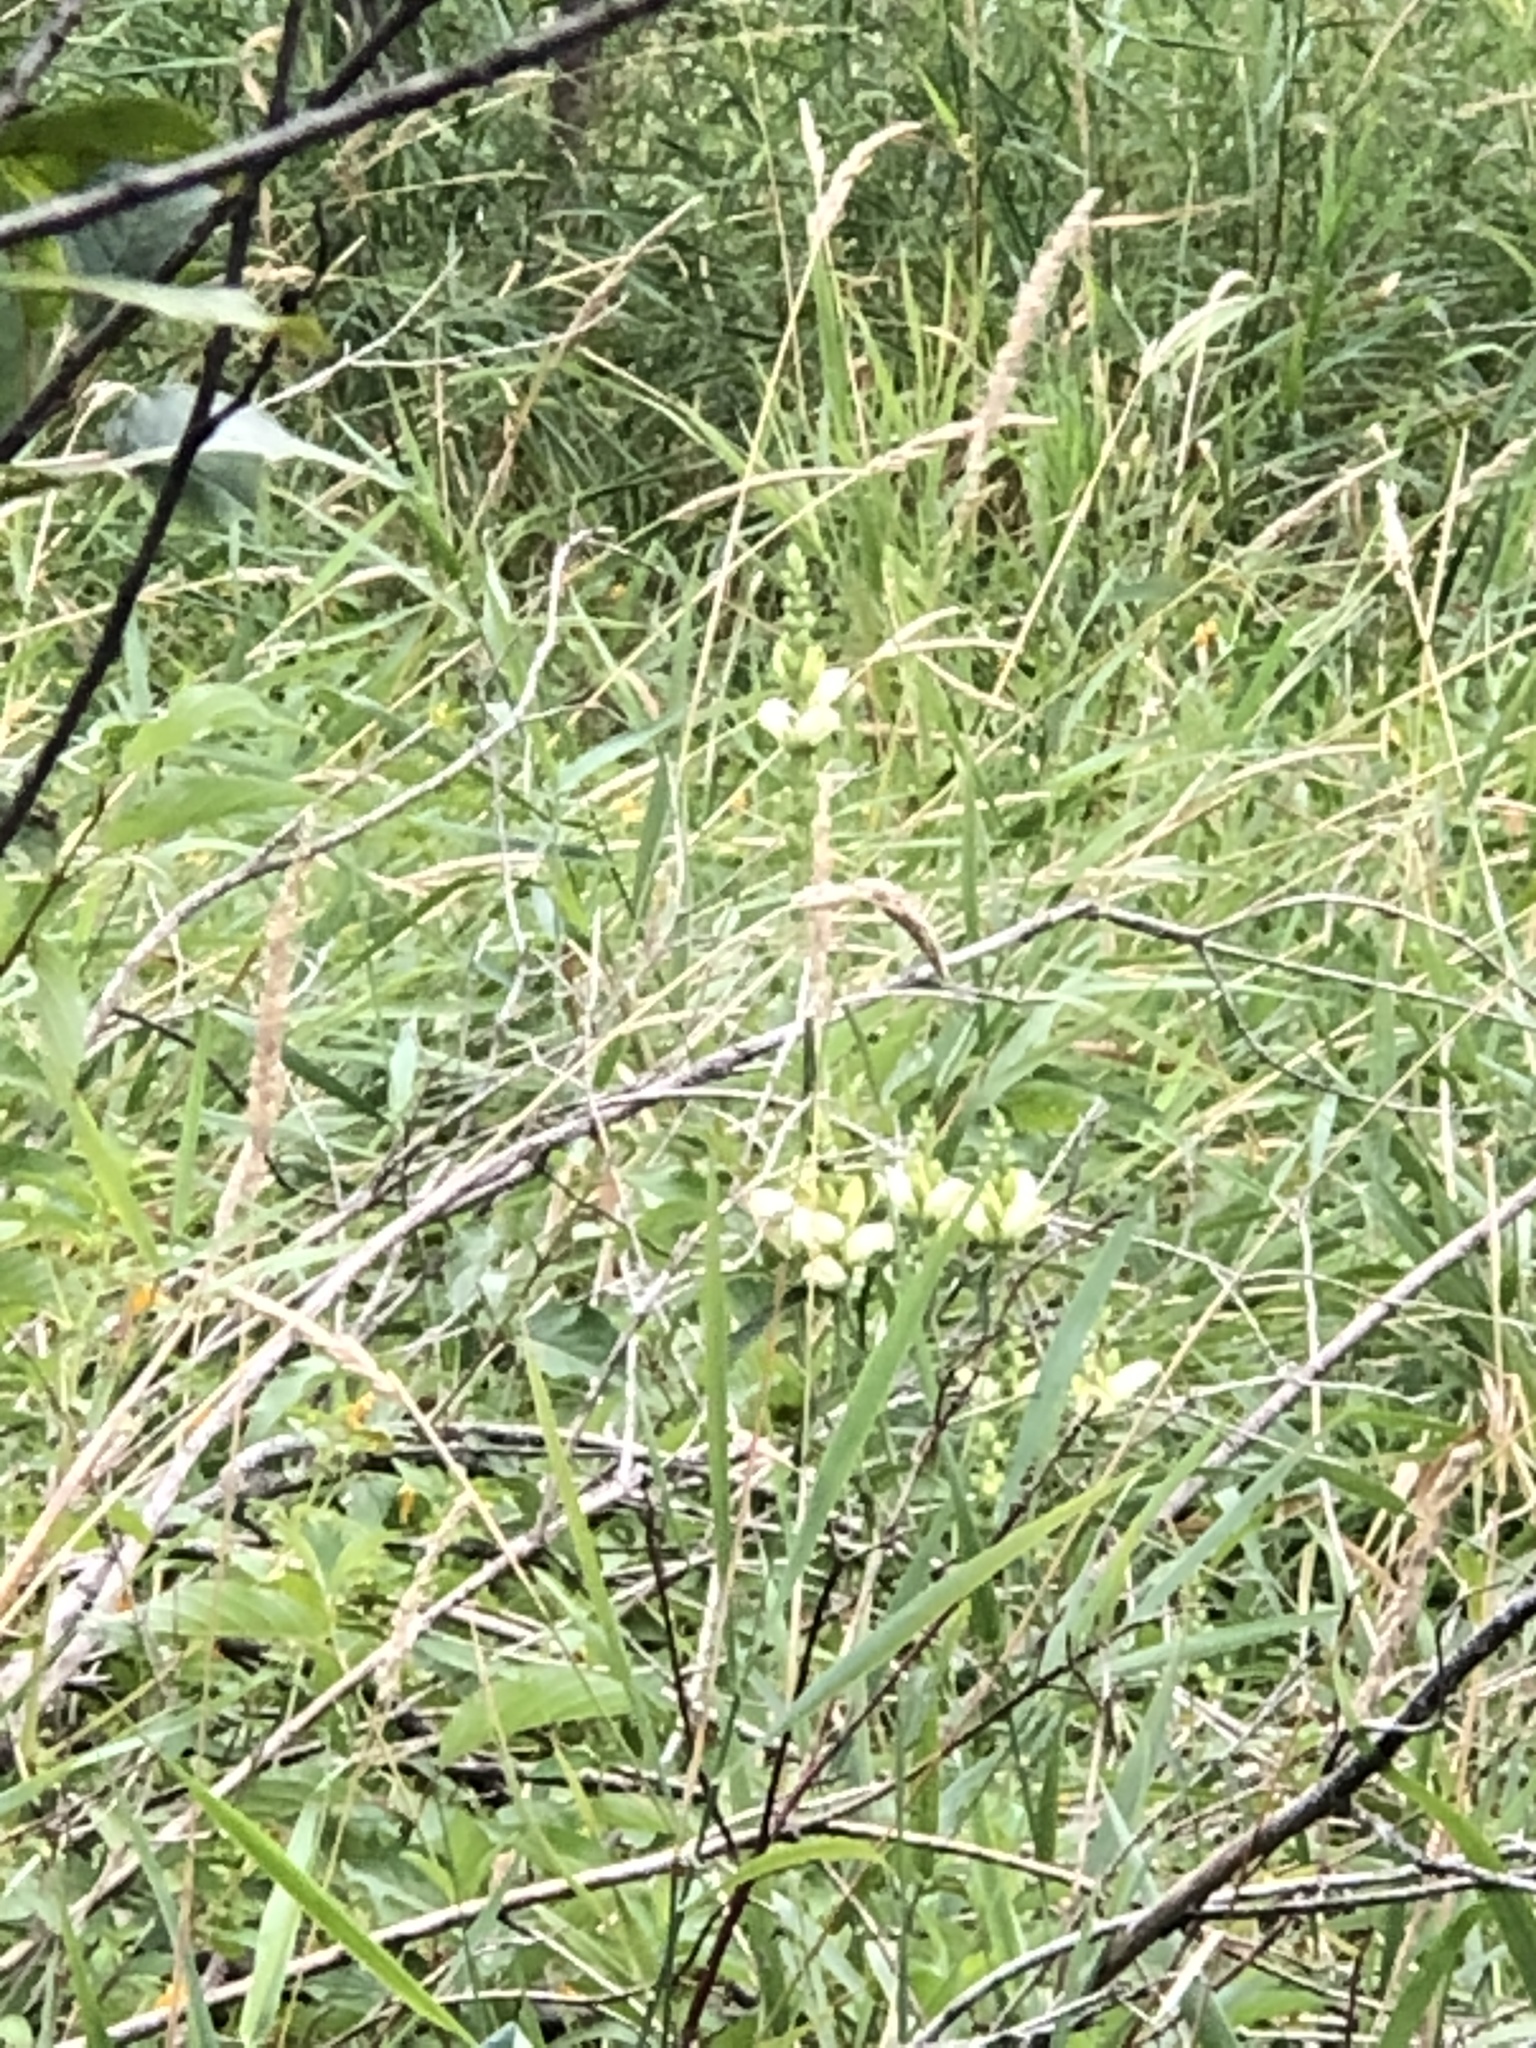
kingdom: Plantae
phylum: Tracheophyta
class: Magnoliopsida
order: Lamiales
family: Plantaginaceae
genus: Chelone
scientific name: Chelone glabra
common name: Snakehead
